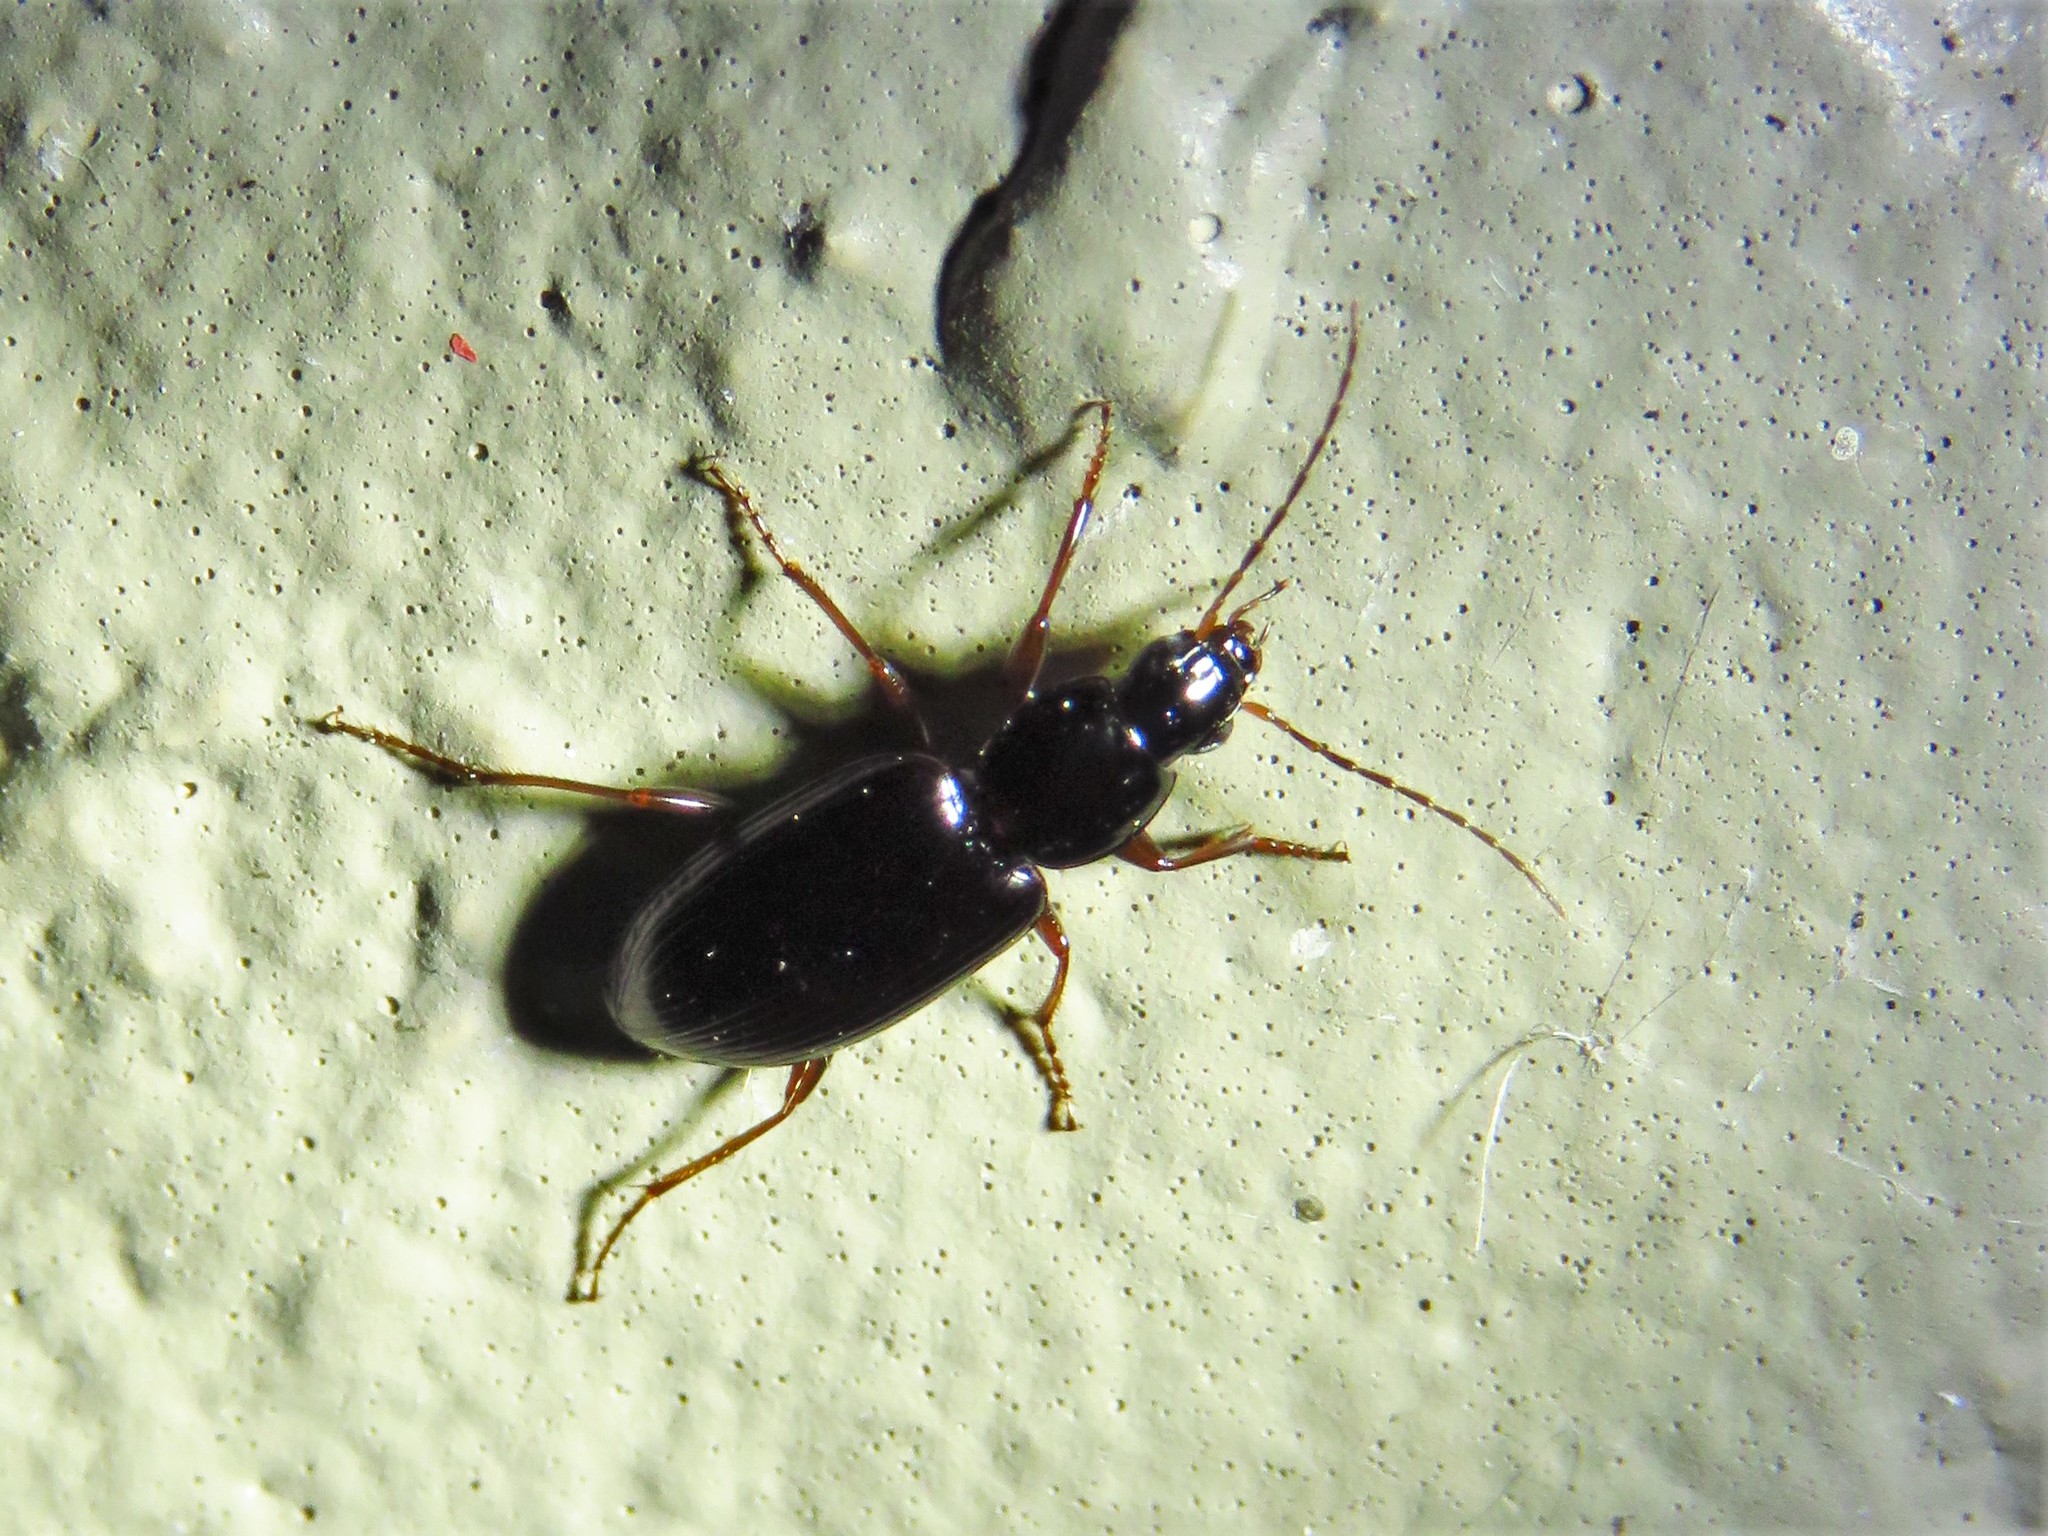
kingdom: Animalia
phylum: Arthropoda
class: Insecta
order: Coleoptera
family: Carabidae
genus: Agonum
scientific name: Agonum punctiforme
